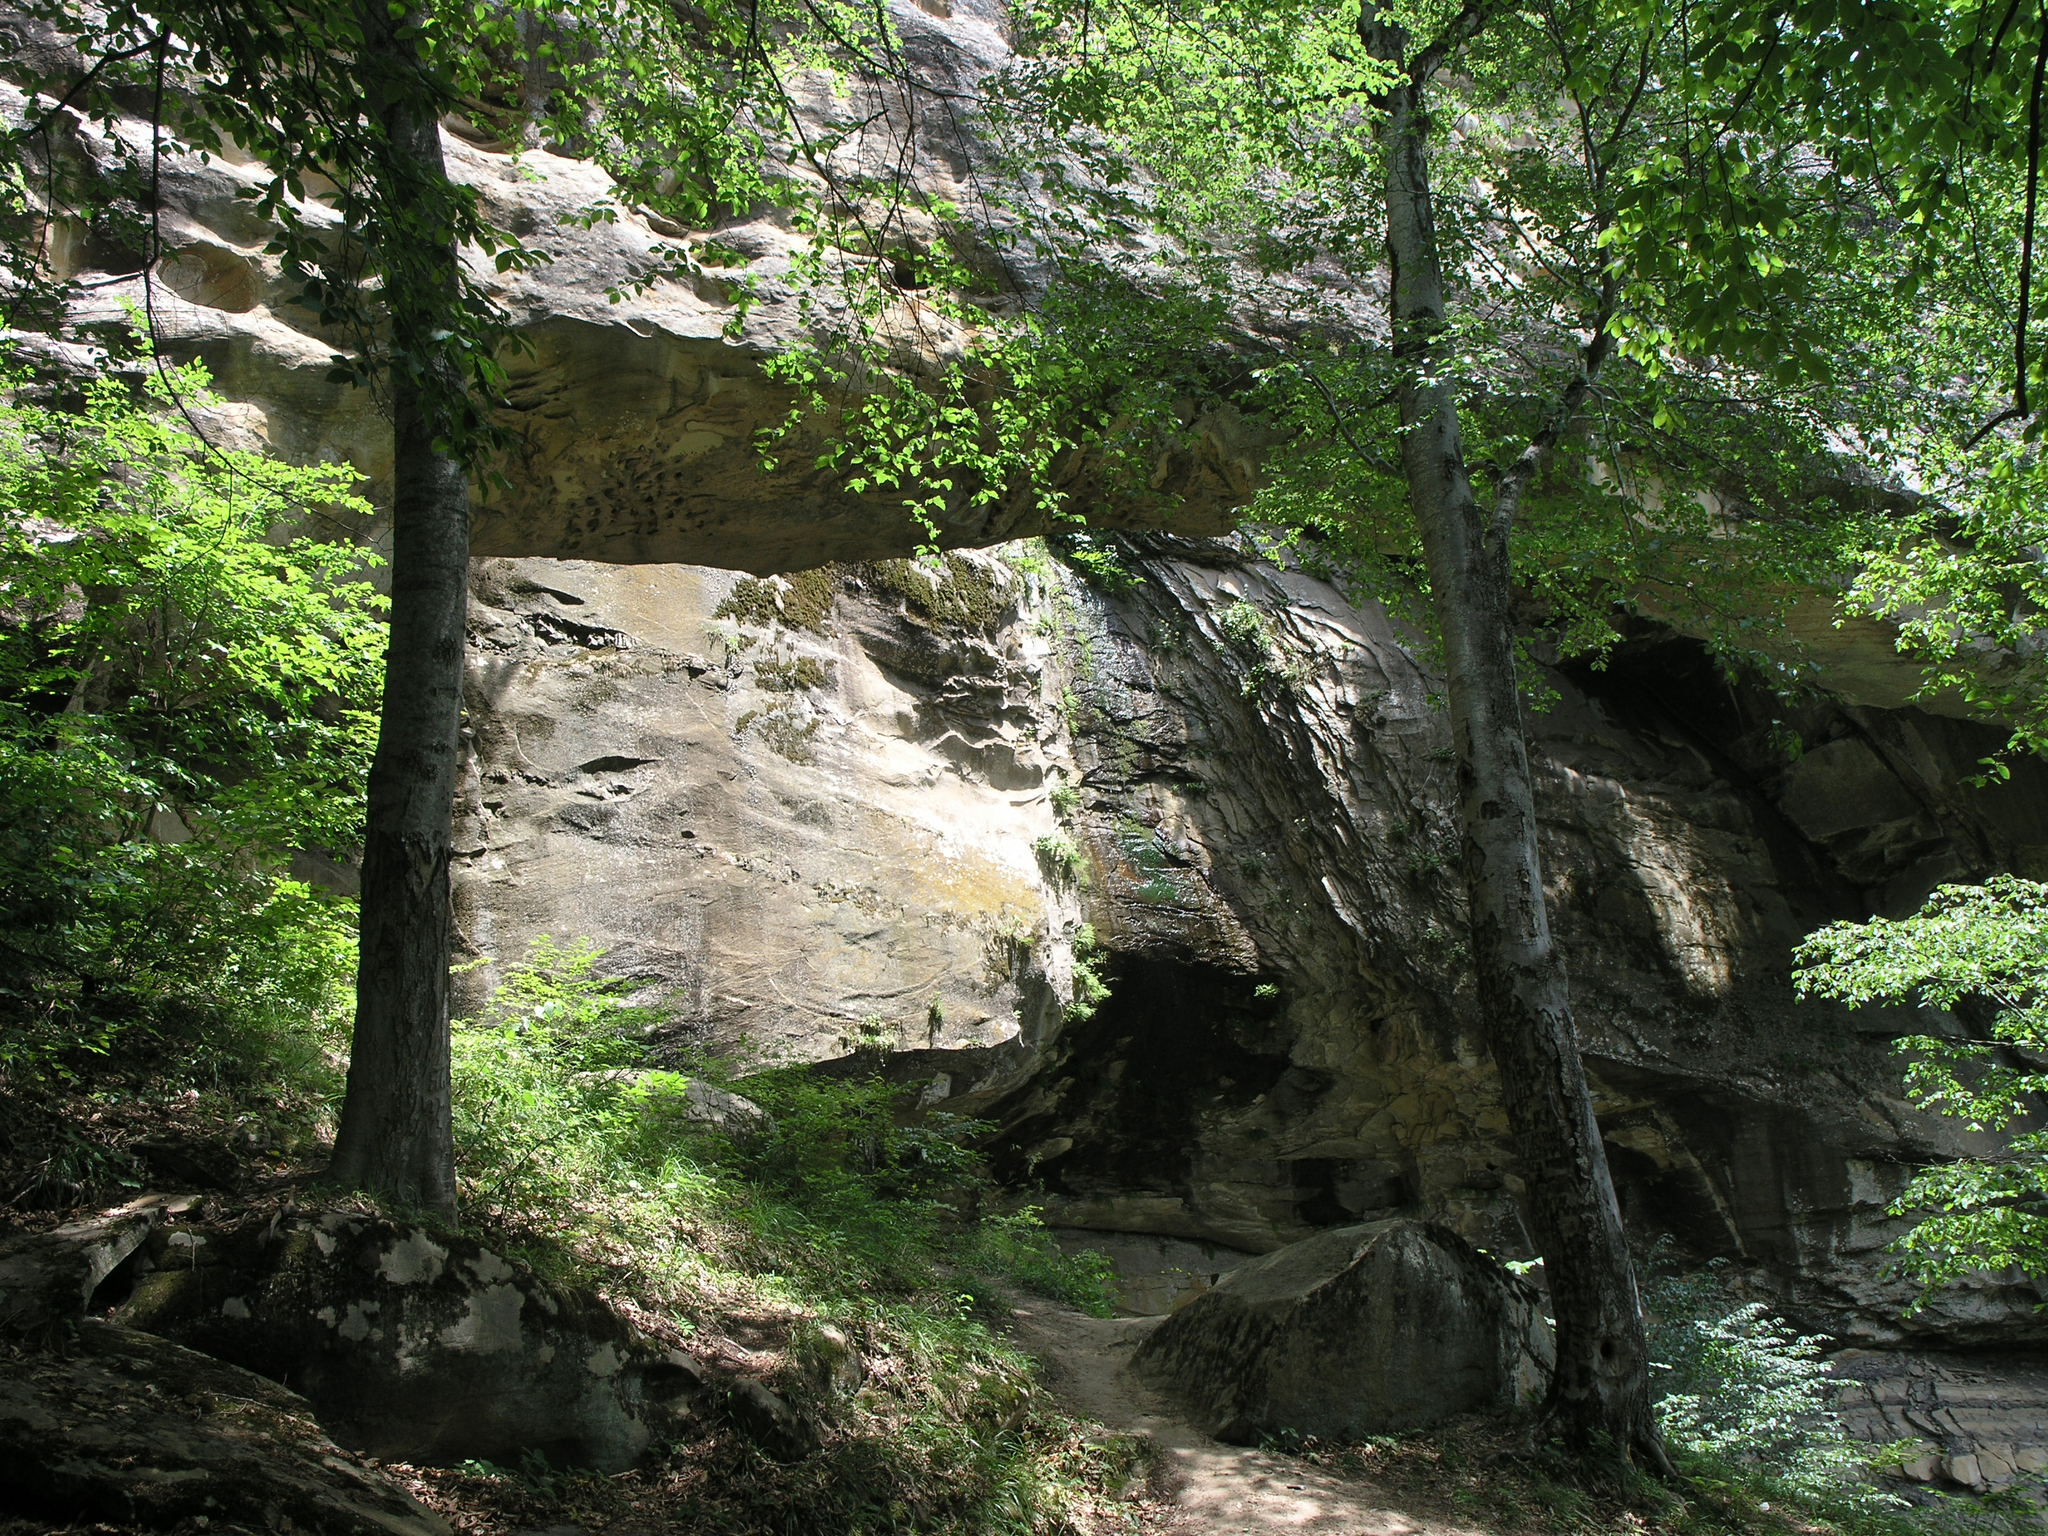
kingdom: Plantae
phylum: Tracheophyta
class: Magnoliopsida
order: Fagales
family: Fagaceae
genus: Fagus
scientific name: Fagus orientalis
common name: Oriental beech
